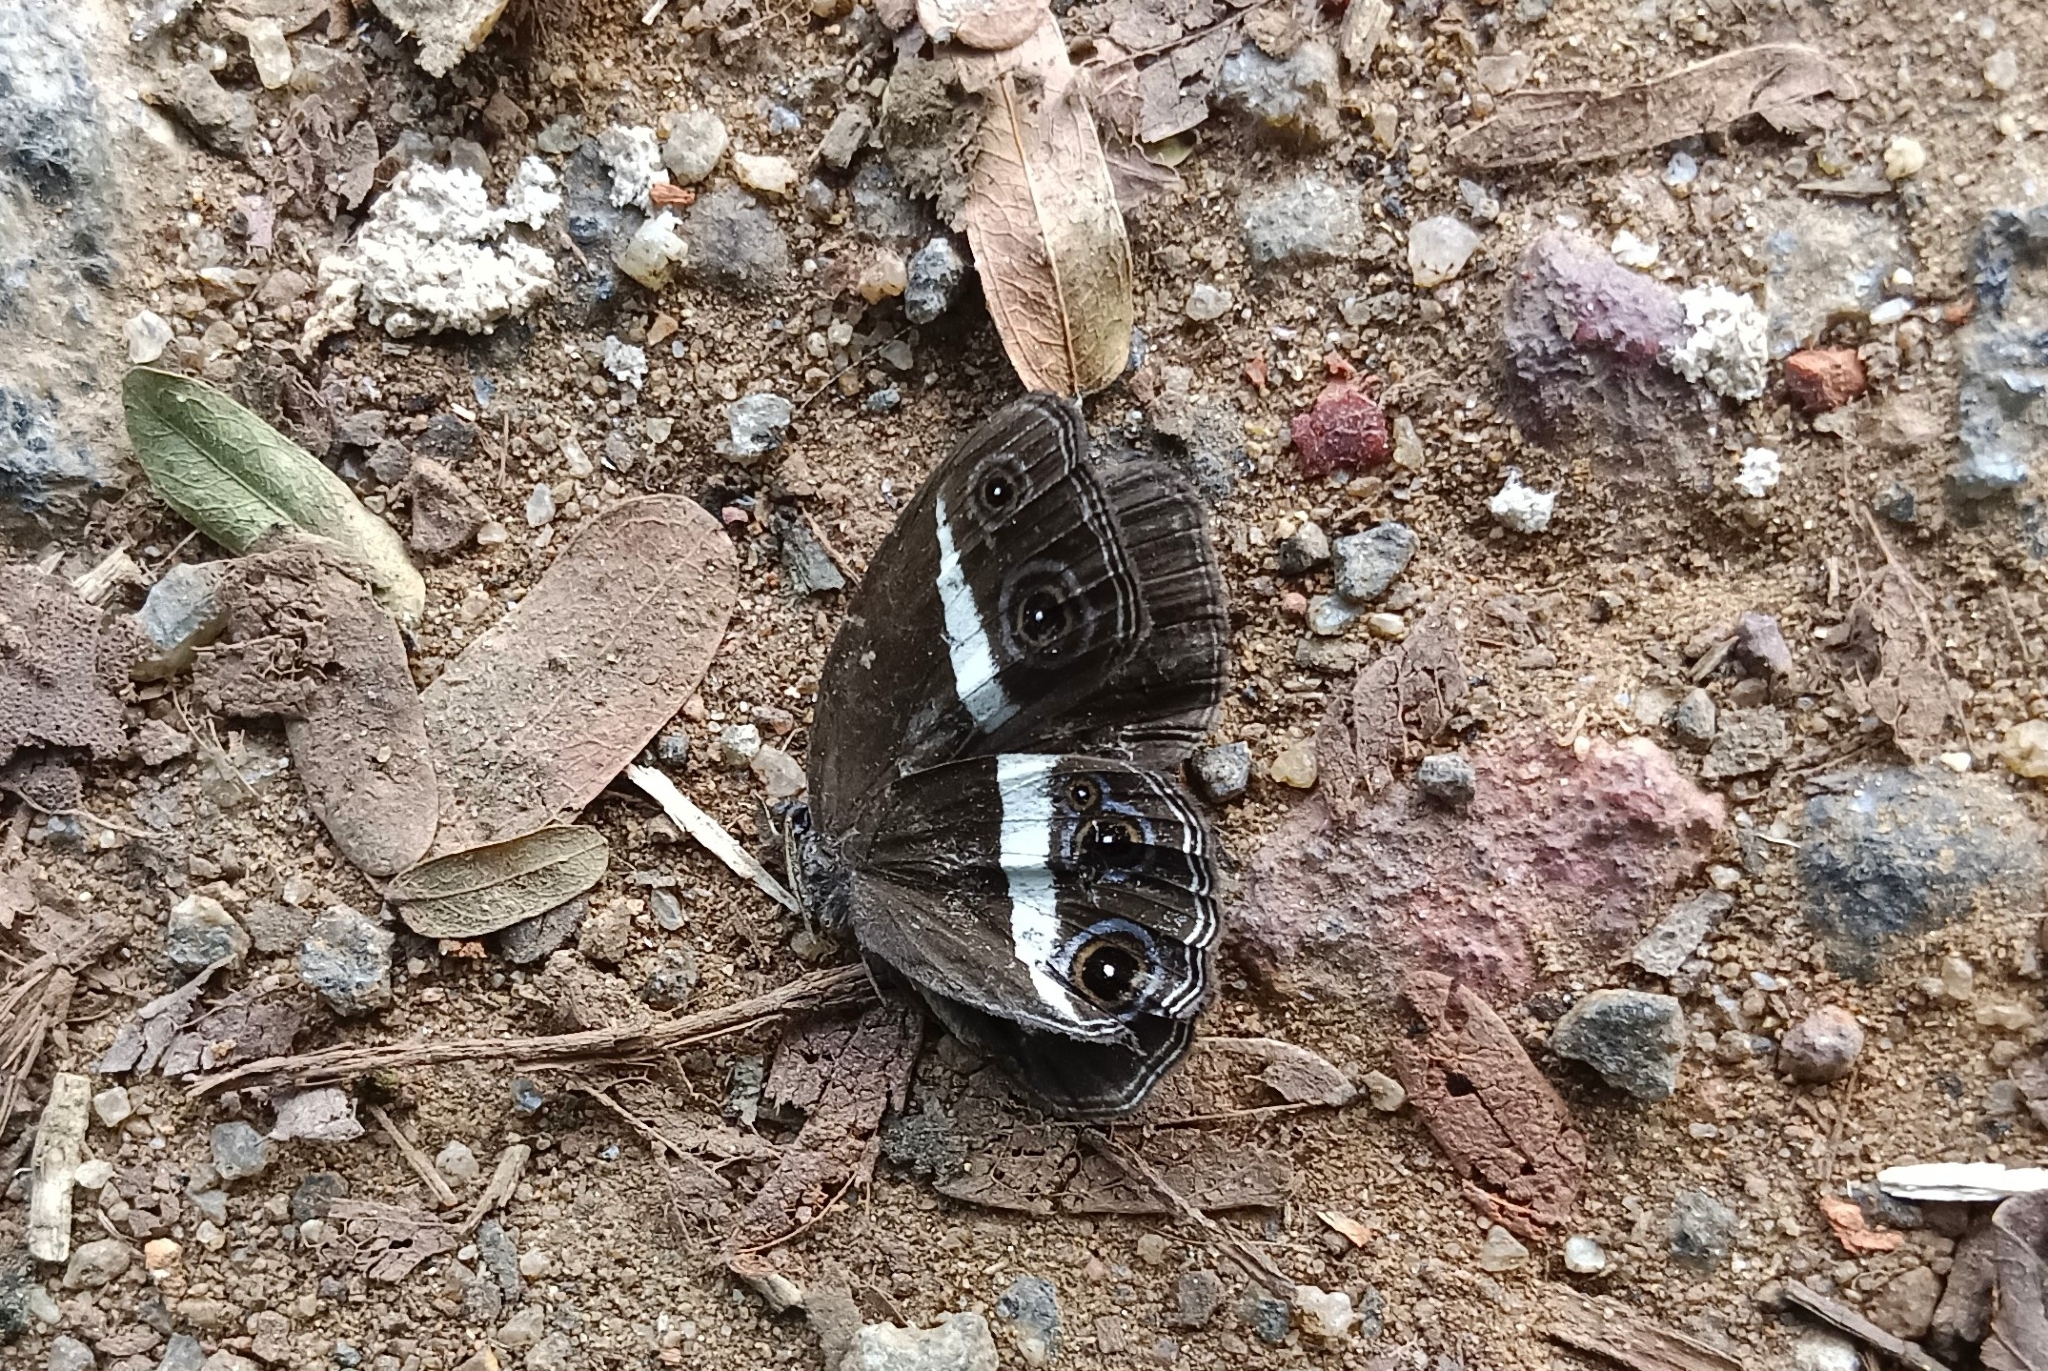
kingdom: Animalia
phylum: Arthropoda
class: Insecta
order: Lepidoptera
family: Nymphalidae
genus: Orsotriaena
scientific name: Orsotriaena medus
